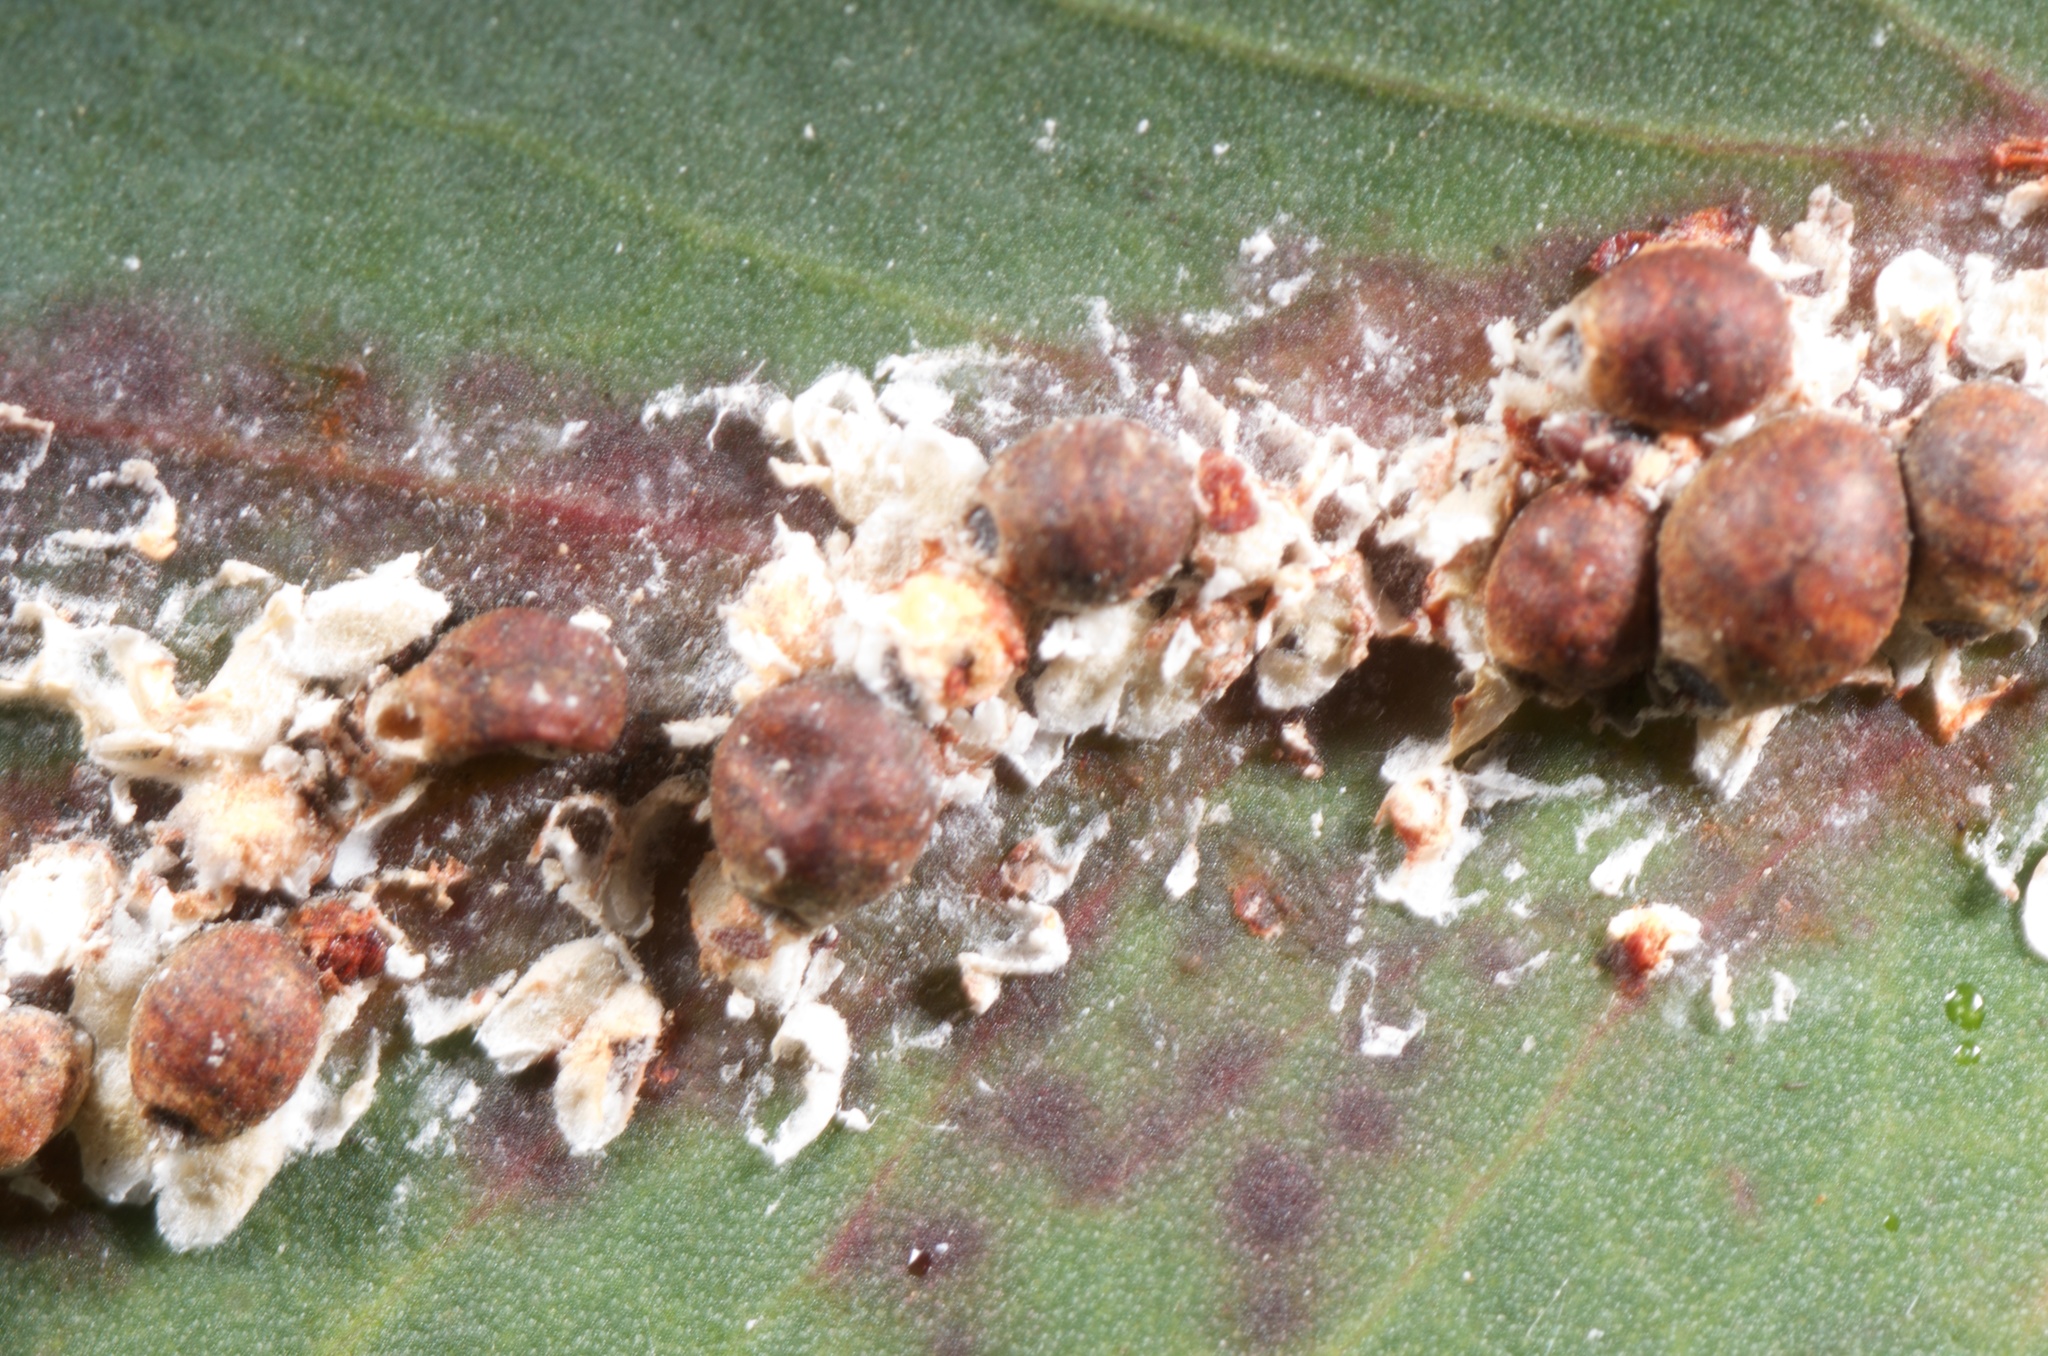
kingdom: Animalia
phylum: Arthropoda
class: Insecta
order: Hemiptera
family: Eriococcidae
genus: Eriococcus
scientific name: Eriococcus coriaceus
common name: Blue gum scale
